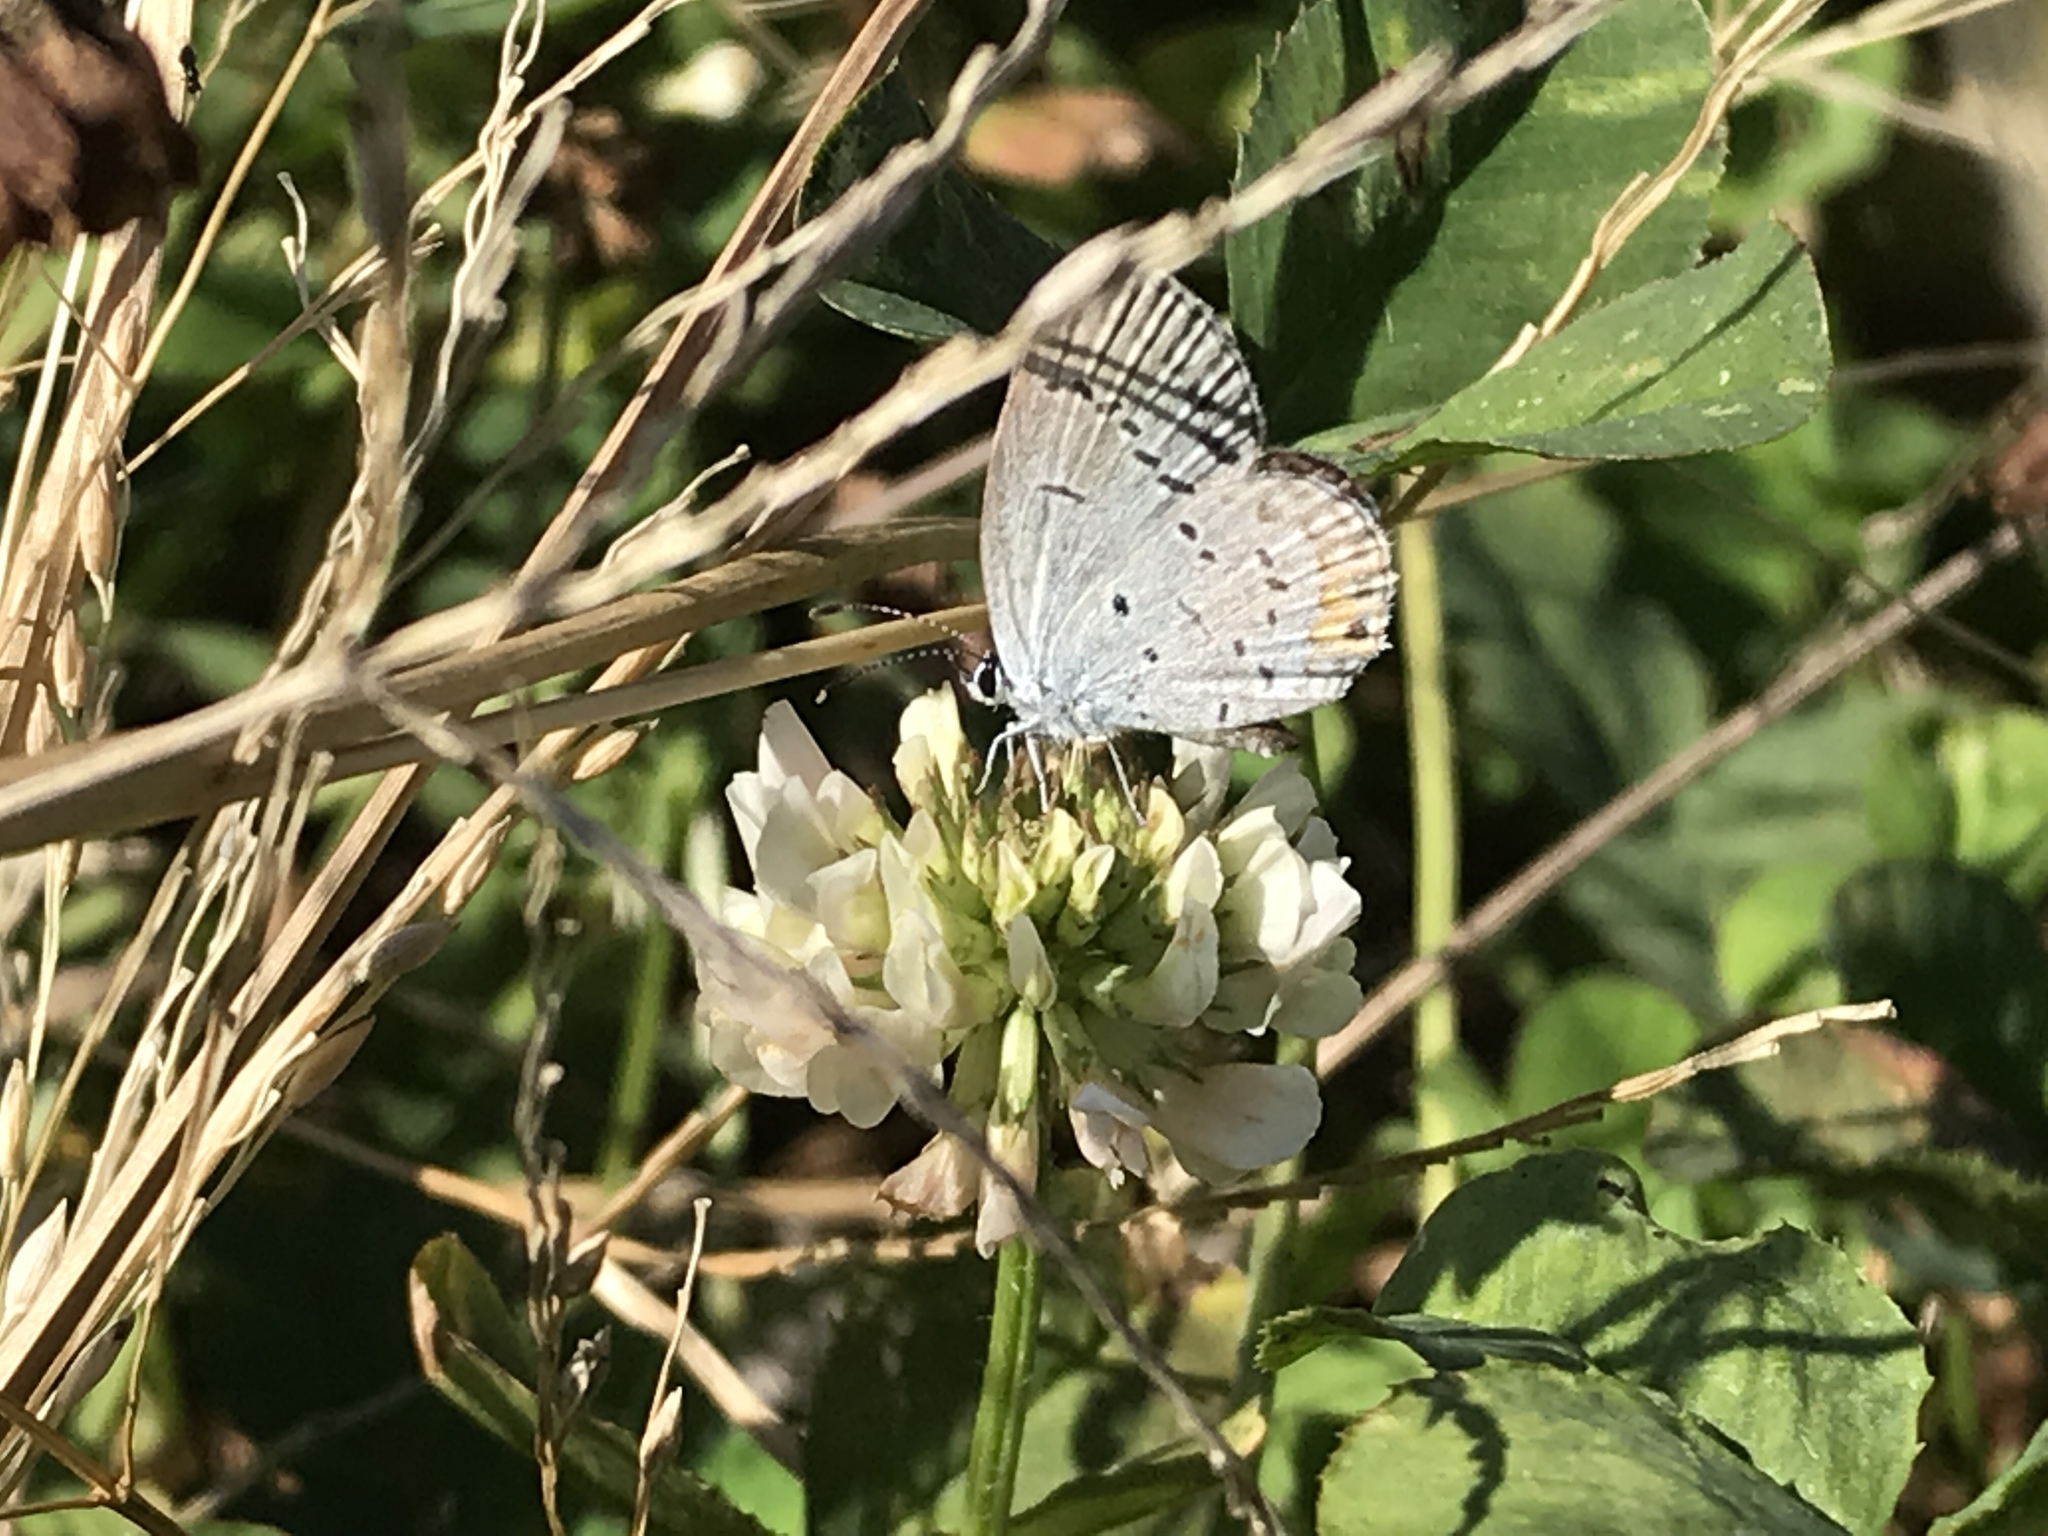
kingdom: Animalia
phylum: Arthropoda
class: Insecta
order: Lepidoptera
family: Lycaenidae
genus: Elkalyce
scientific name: Elkalyce comyntas
